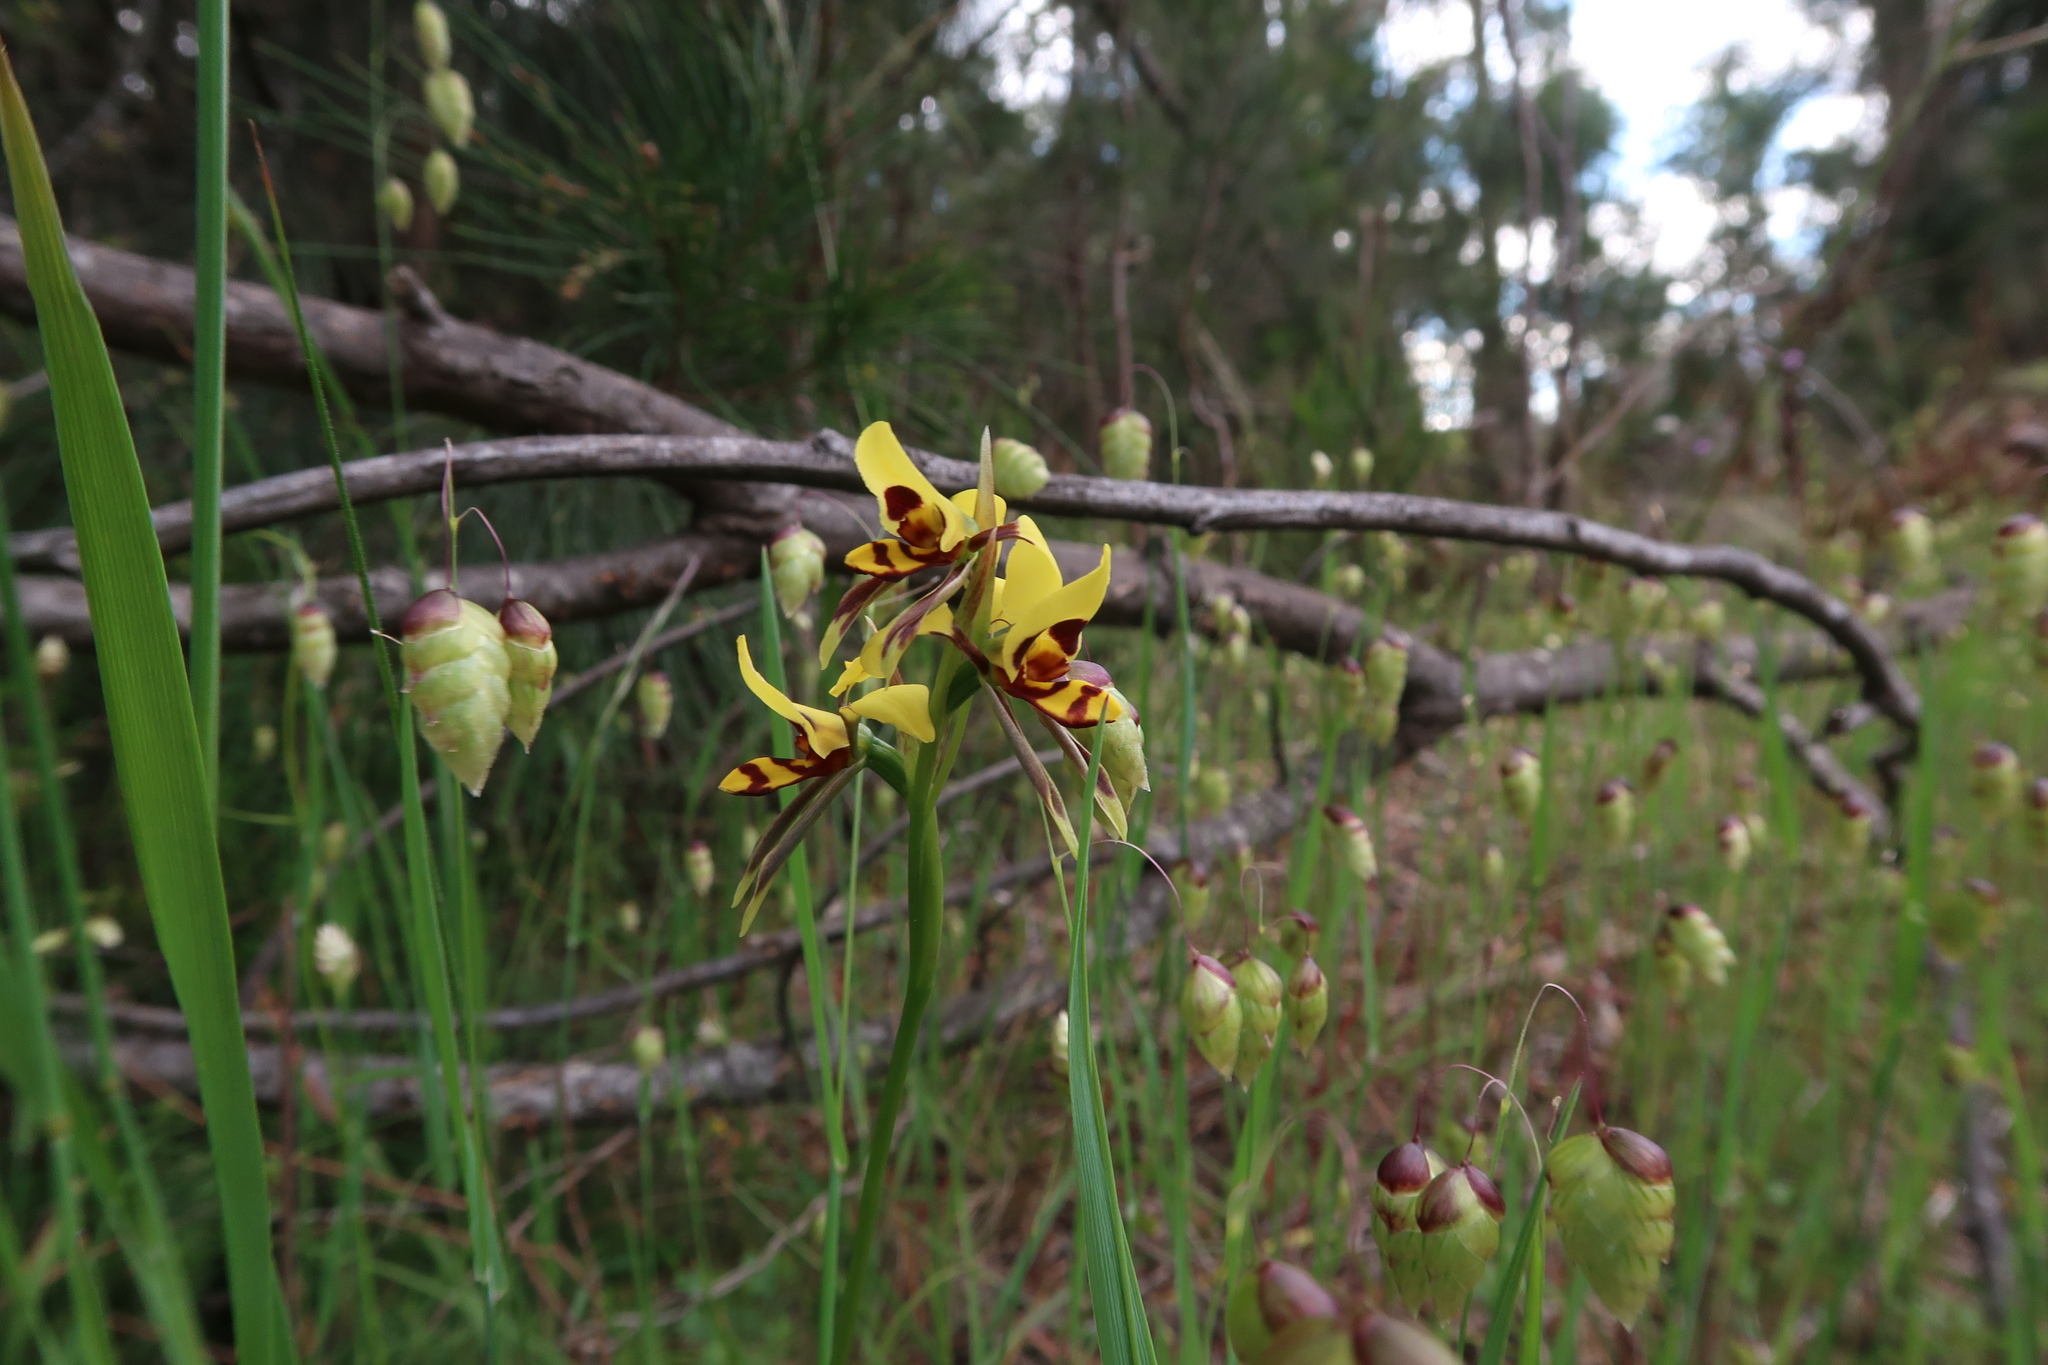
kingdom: Plantae
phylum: Tracheophyta
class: Liliopsida
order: Asparagales
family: Orchidaceae
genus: Diuris
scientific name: Diuris sulphurea
